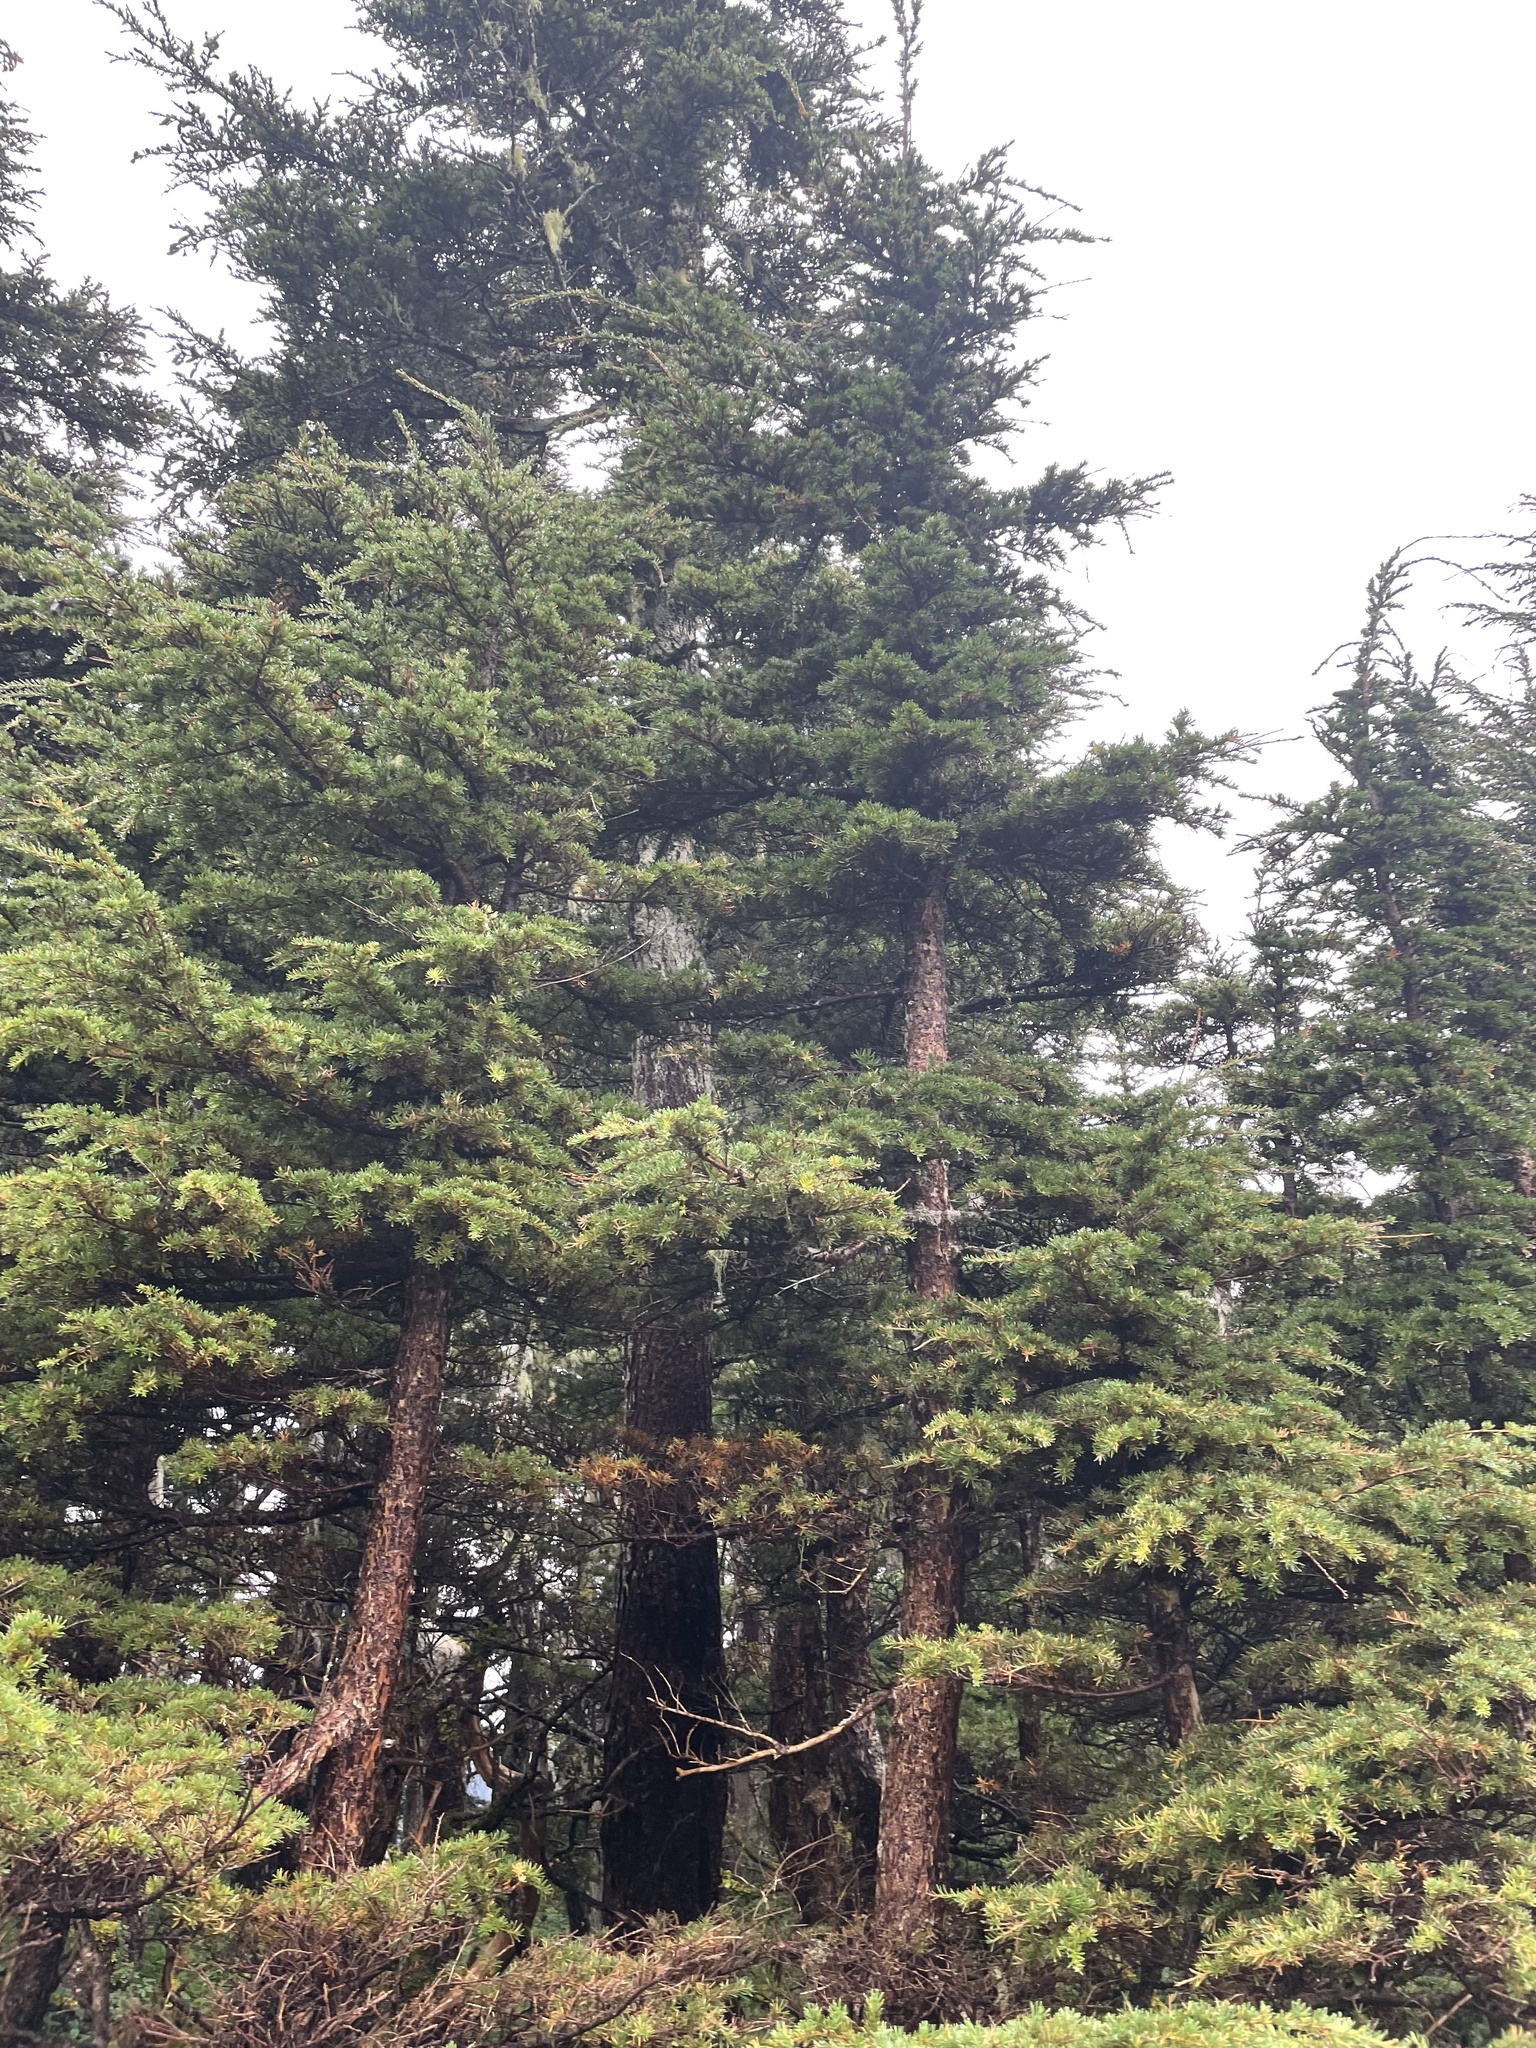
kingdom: Plantae
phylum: Tracheophyta
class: Pinopsida
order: Pinales
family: Pinaceae
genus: Tsuga
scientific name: Tsuga mertensiana
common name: Mountain hemlock
